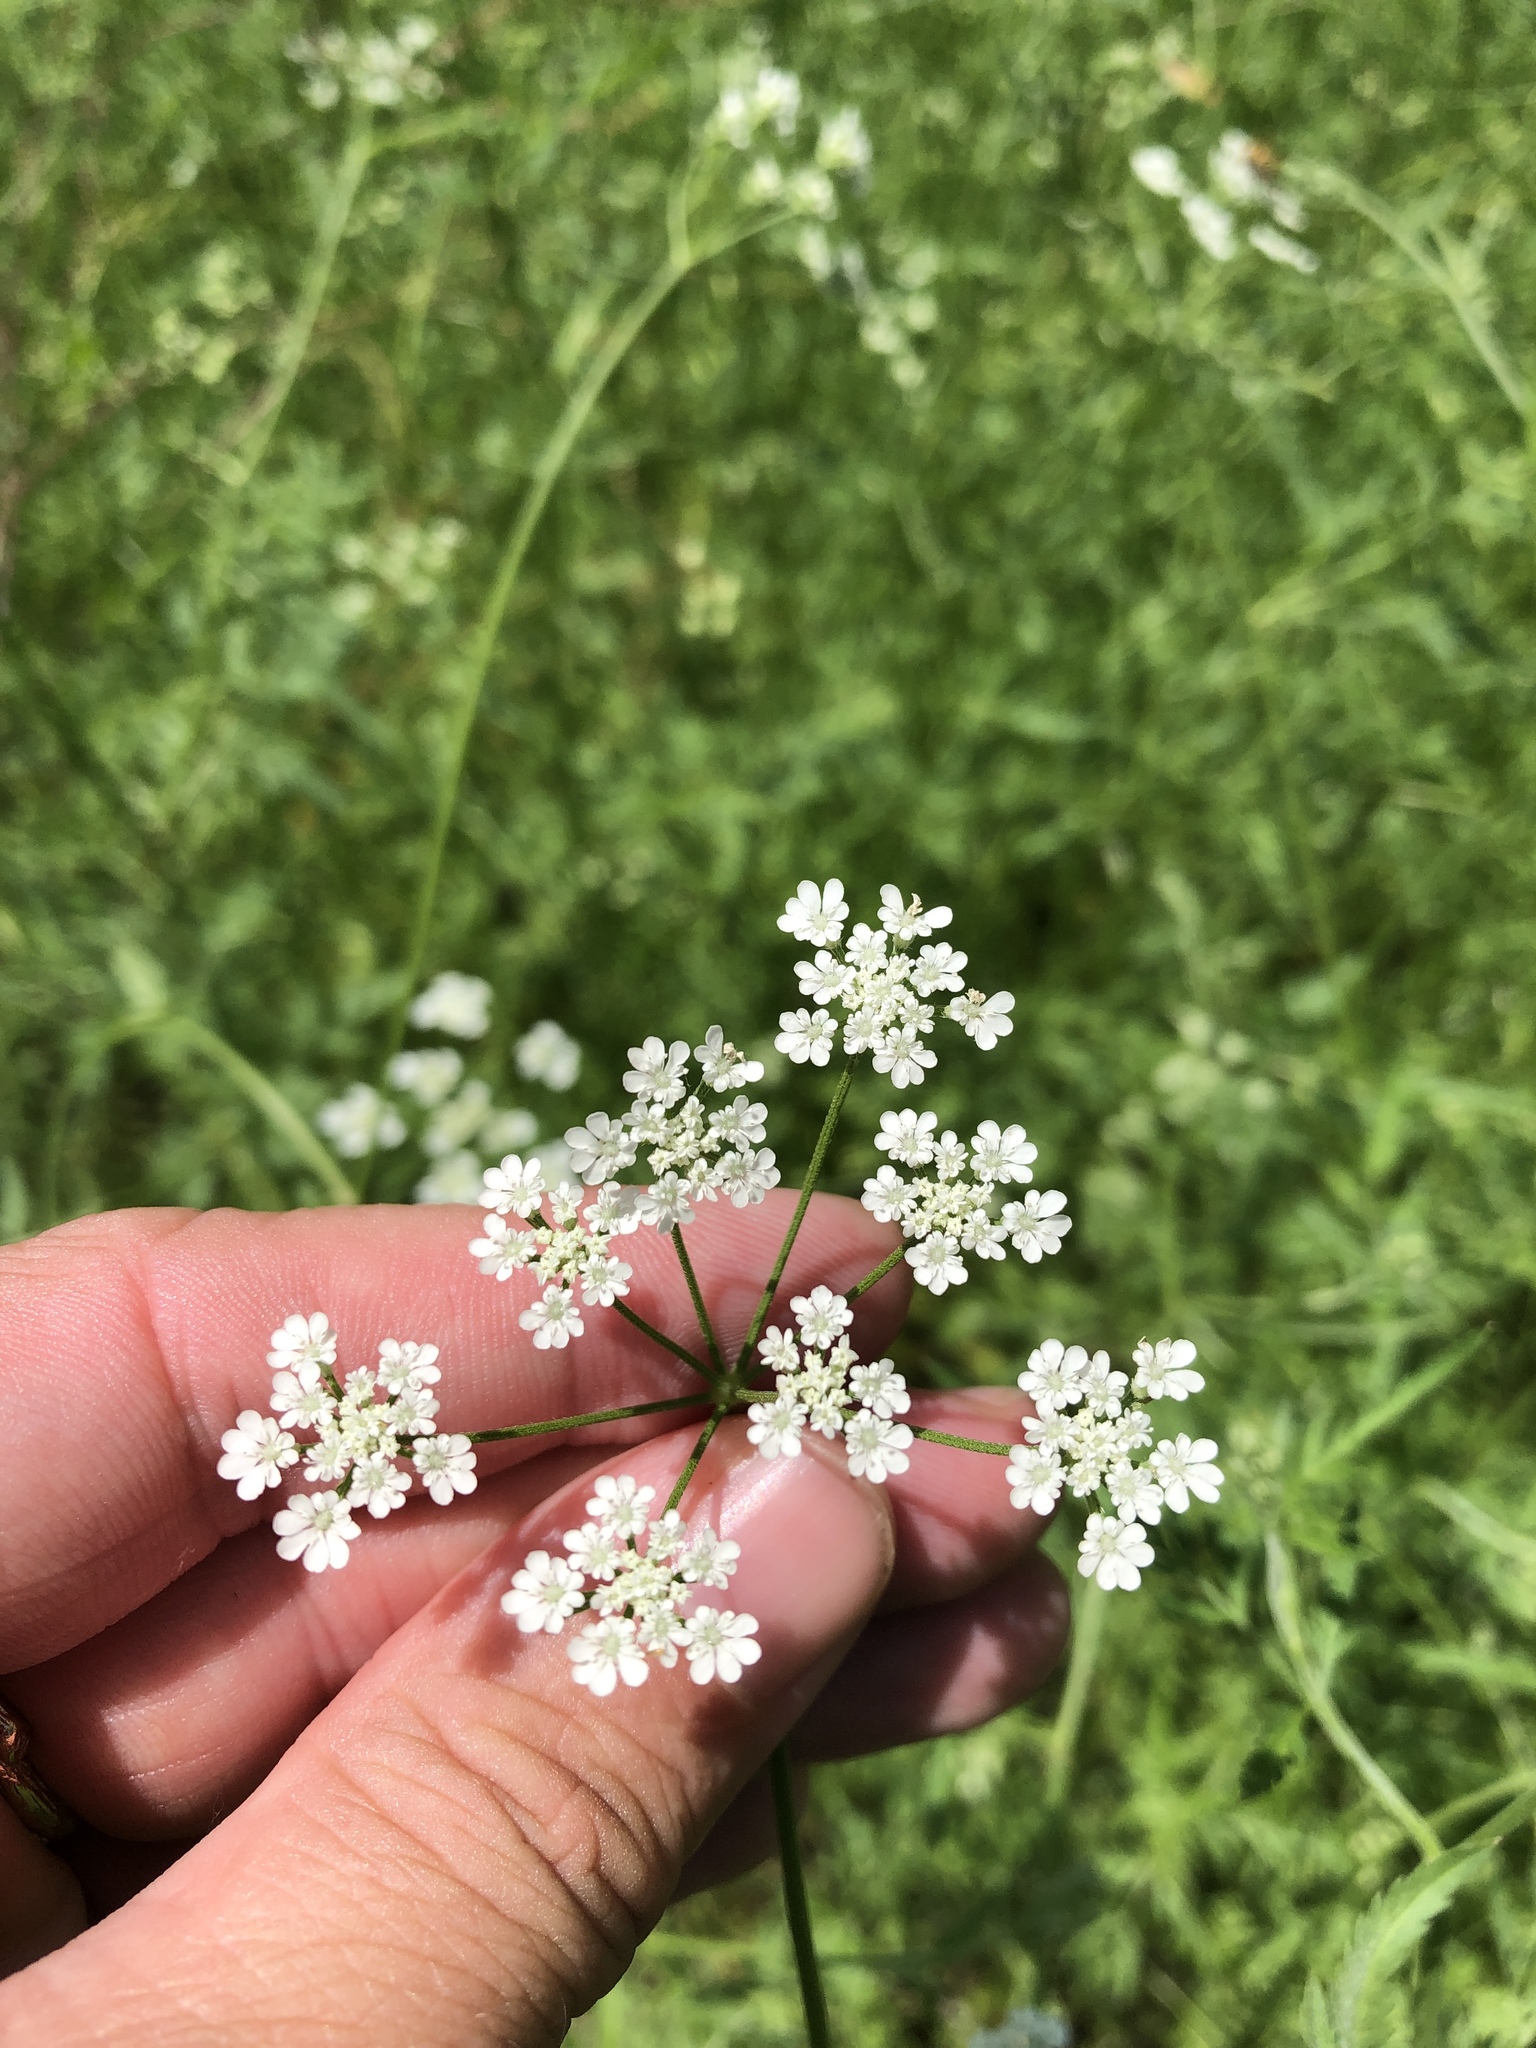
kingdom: Plantae
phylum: Tracheophyta
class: Magnoliopsida
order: Apiales
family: Apiaceae
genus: Torilis
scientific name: Torilis arvensis
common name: Spreading hedge-parsley
